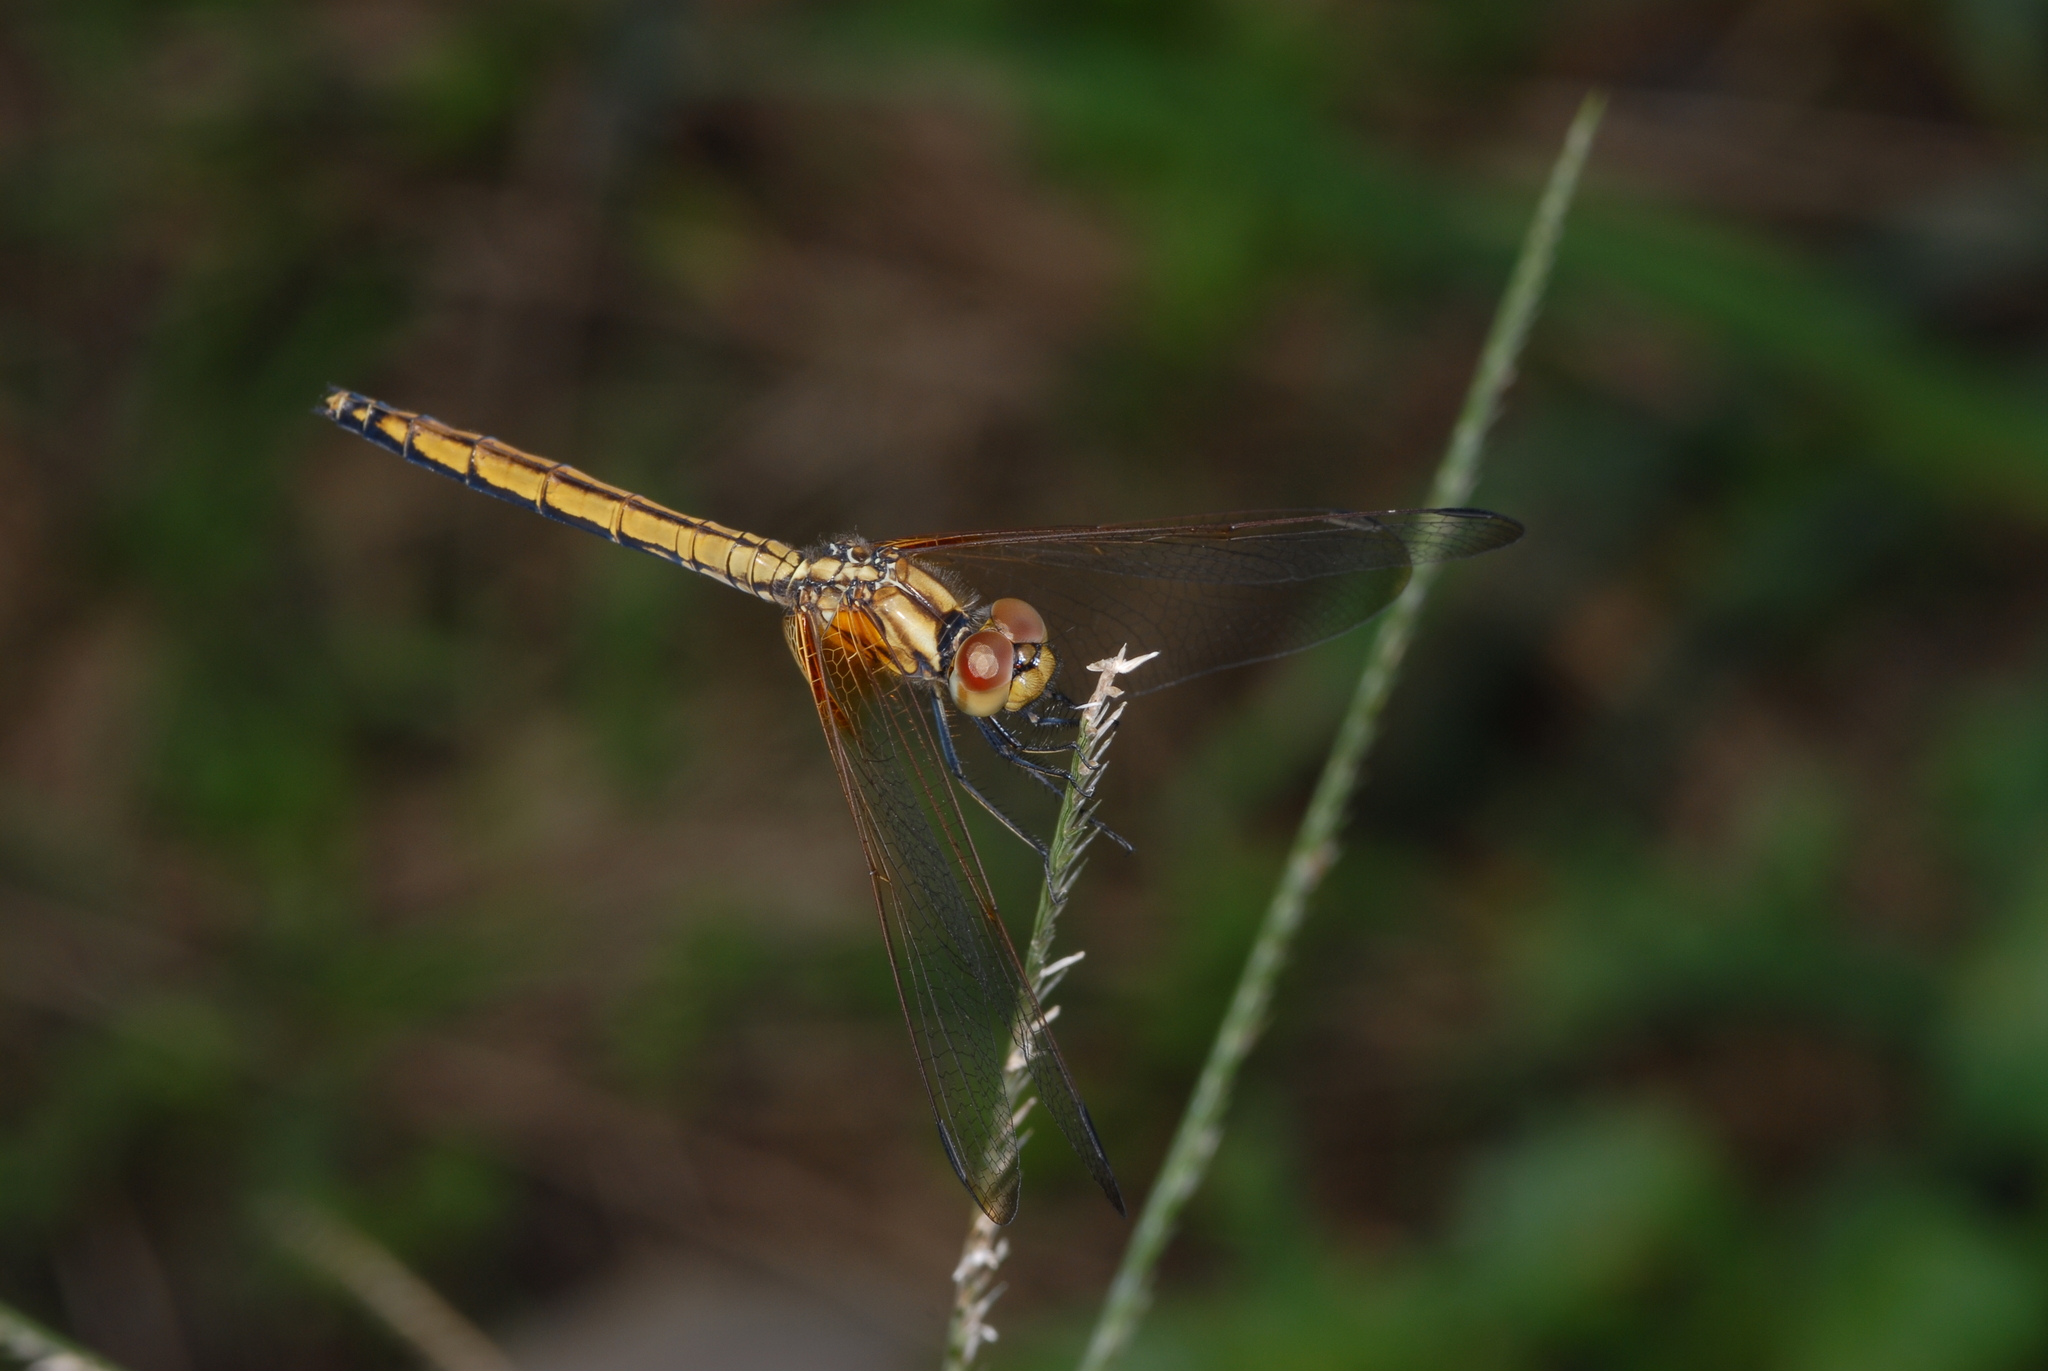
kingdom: Animalia
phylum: Arthropoda
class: Insecta
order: Odonata
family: Libellulidae
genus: Trithemis
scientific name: Trithemis aurora
